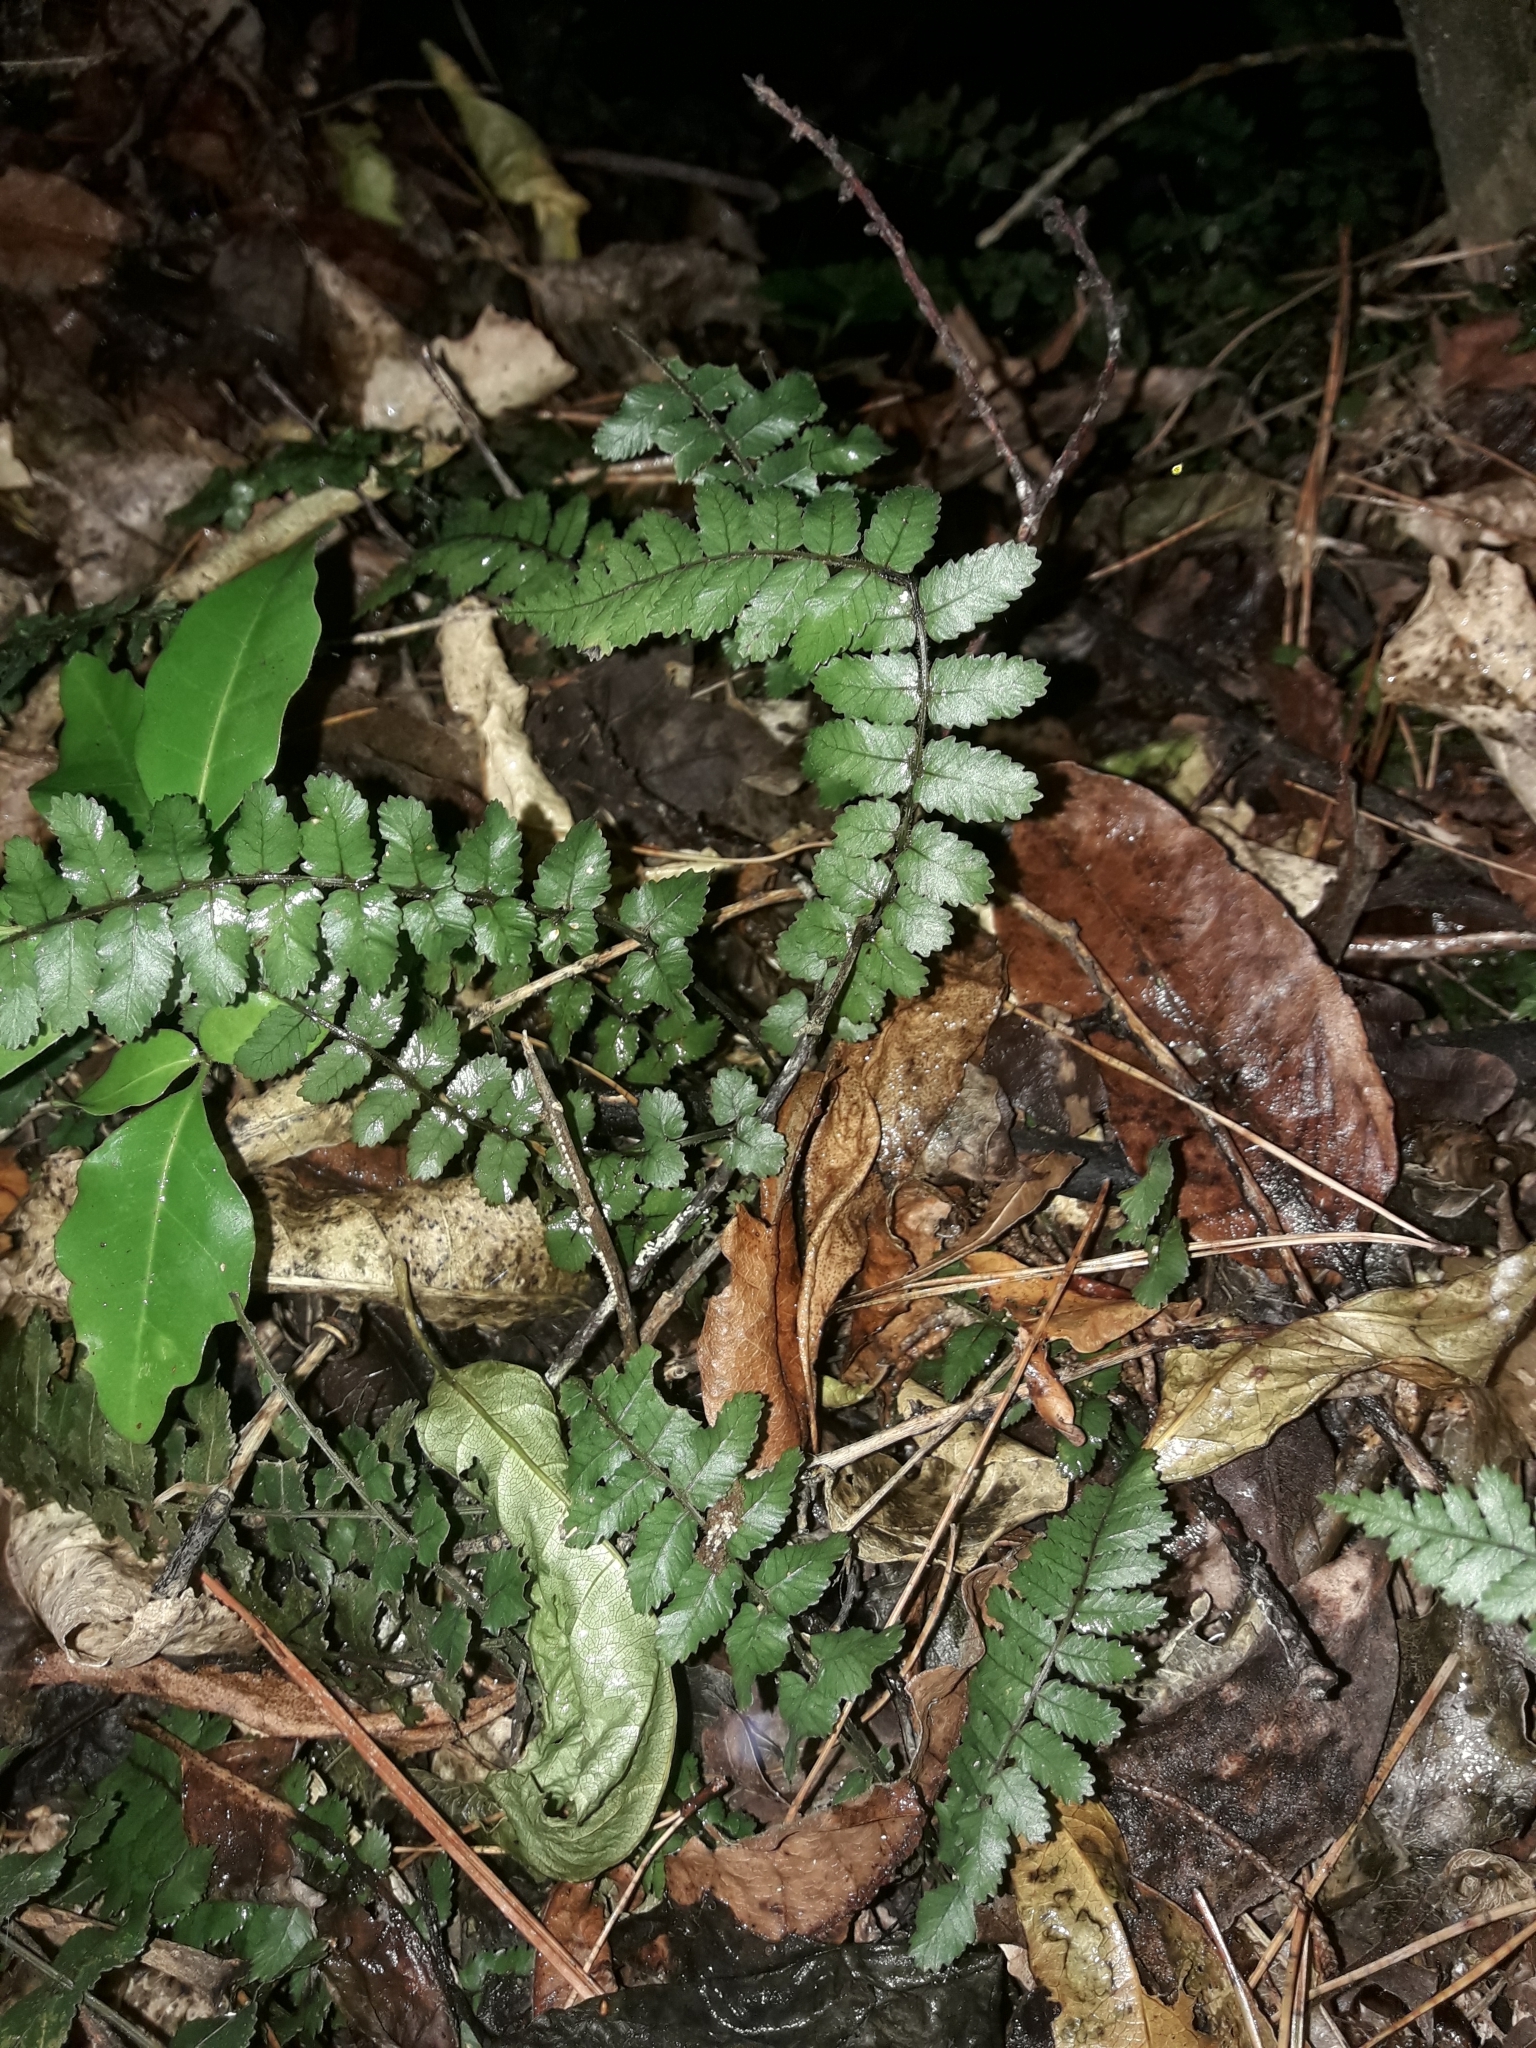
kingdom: Plantae
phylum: Tracheophyta
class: Polypodiopsida
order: Polypodiales
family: Blechnaceae
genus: Icarus
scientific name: Icarus filiformis
